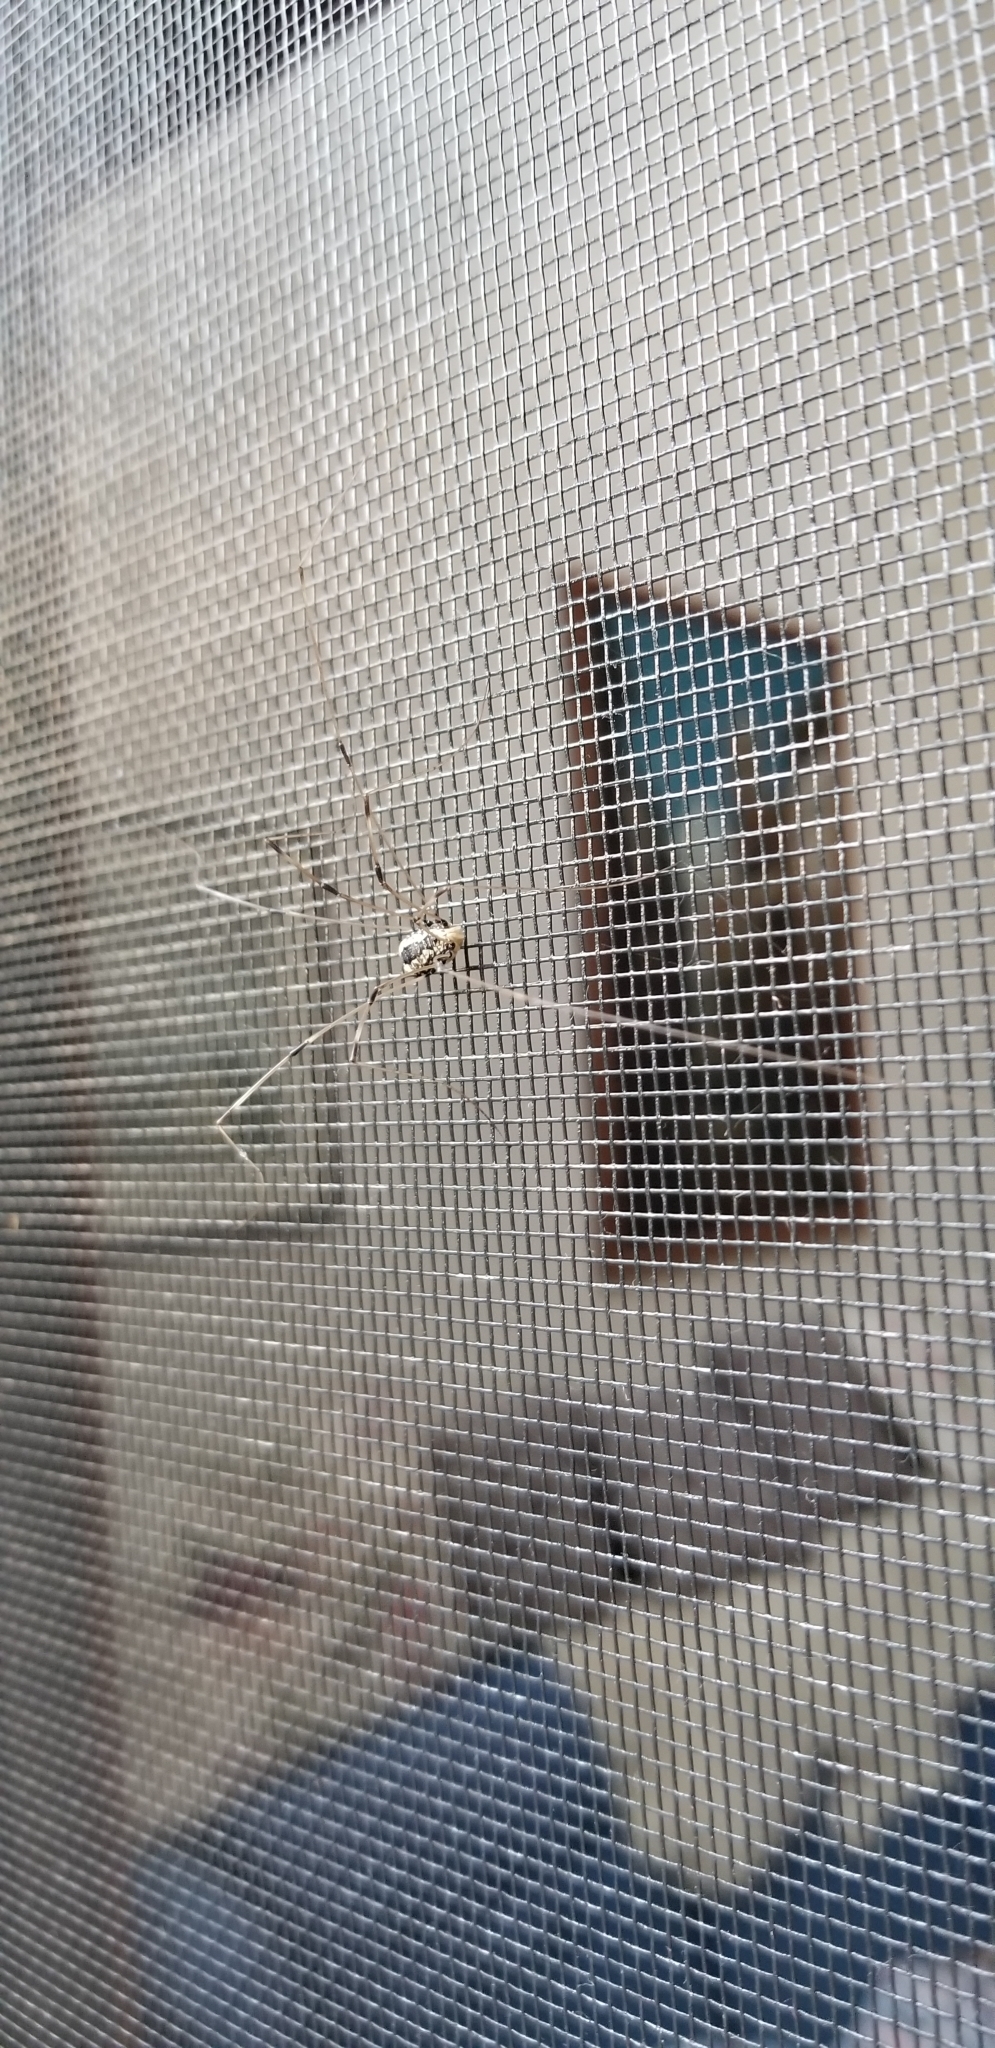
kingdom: Animalia
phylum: Arthropoda
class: Arachnida
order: Opiliones
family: Sclerosomatidae
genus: Leiobunum
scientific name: Leiobunum vittatum
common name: Eastern harvestman
